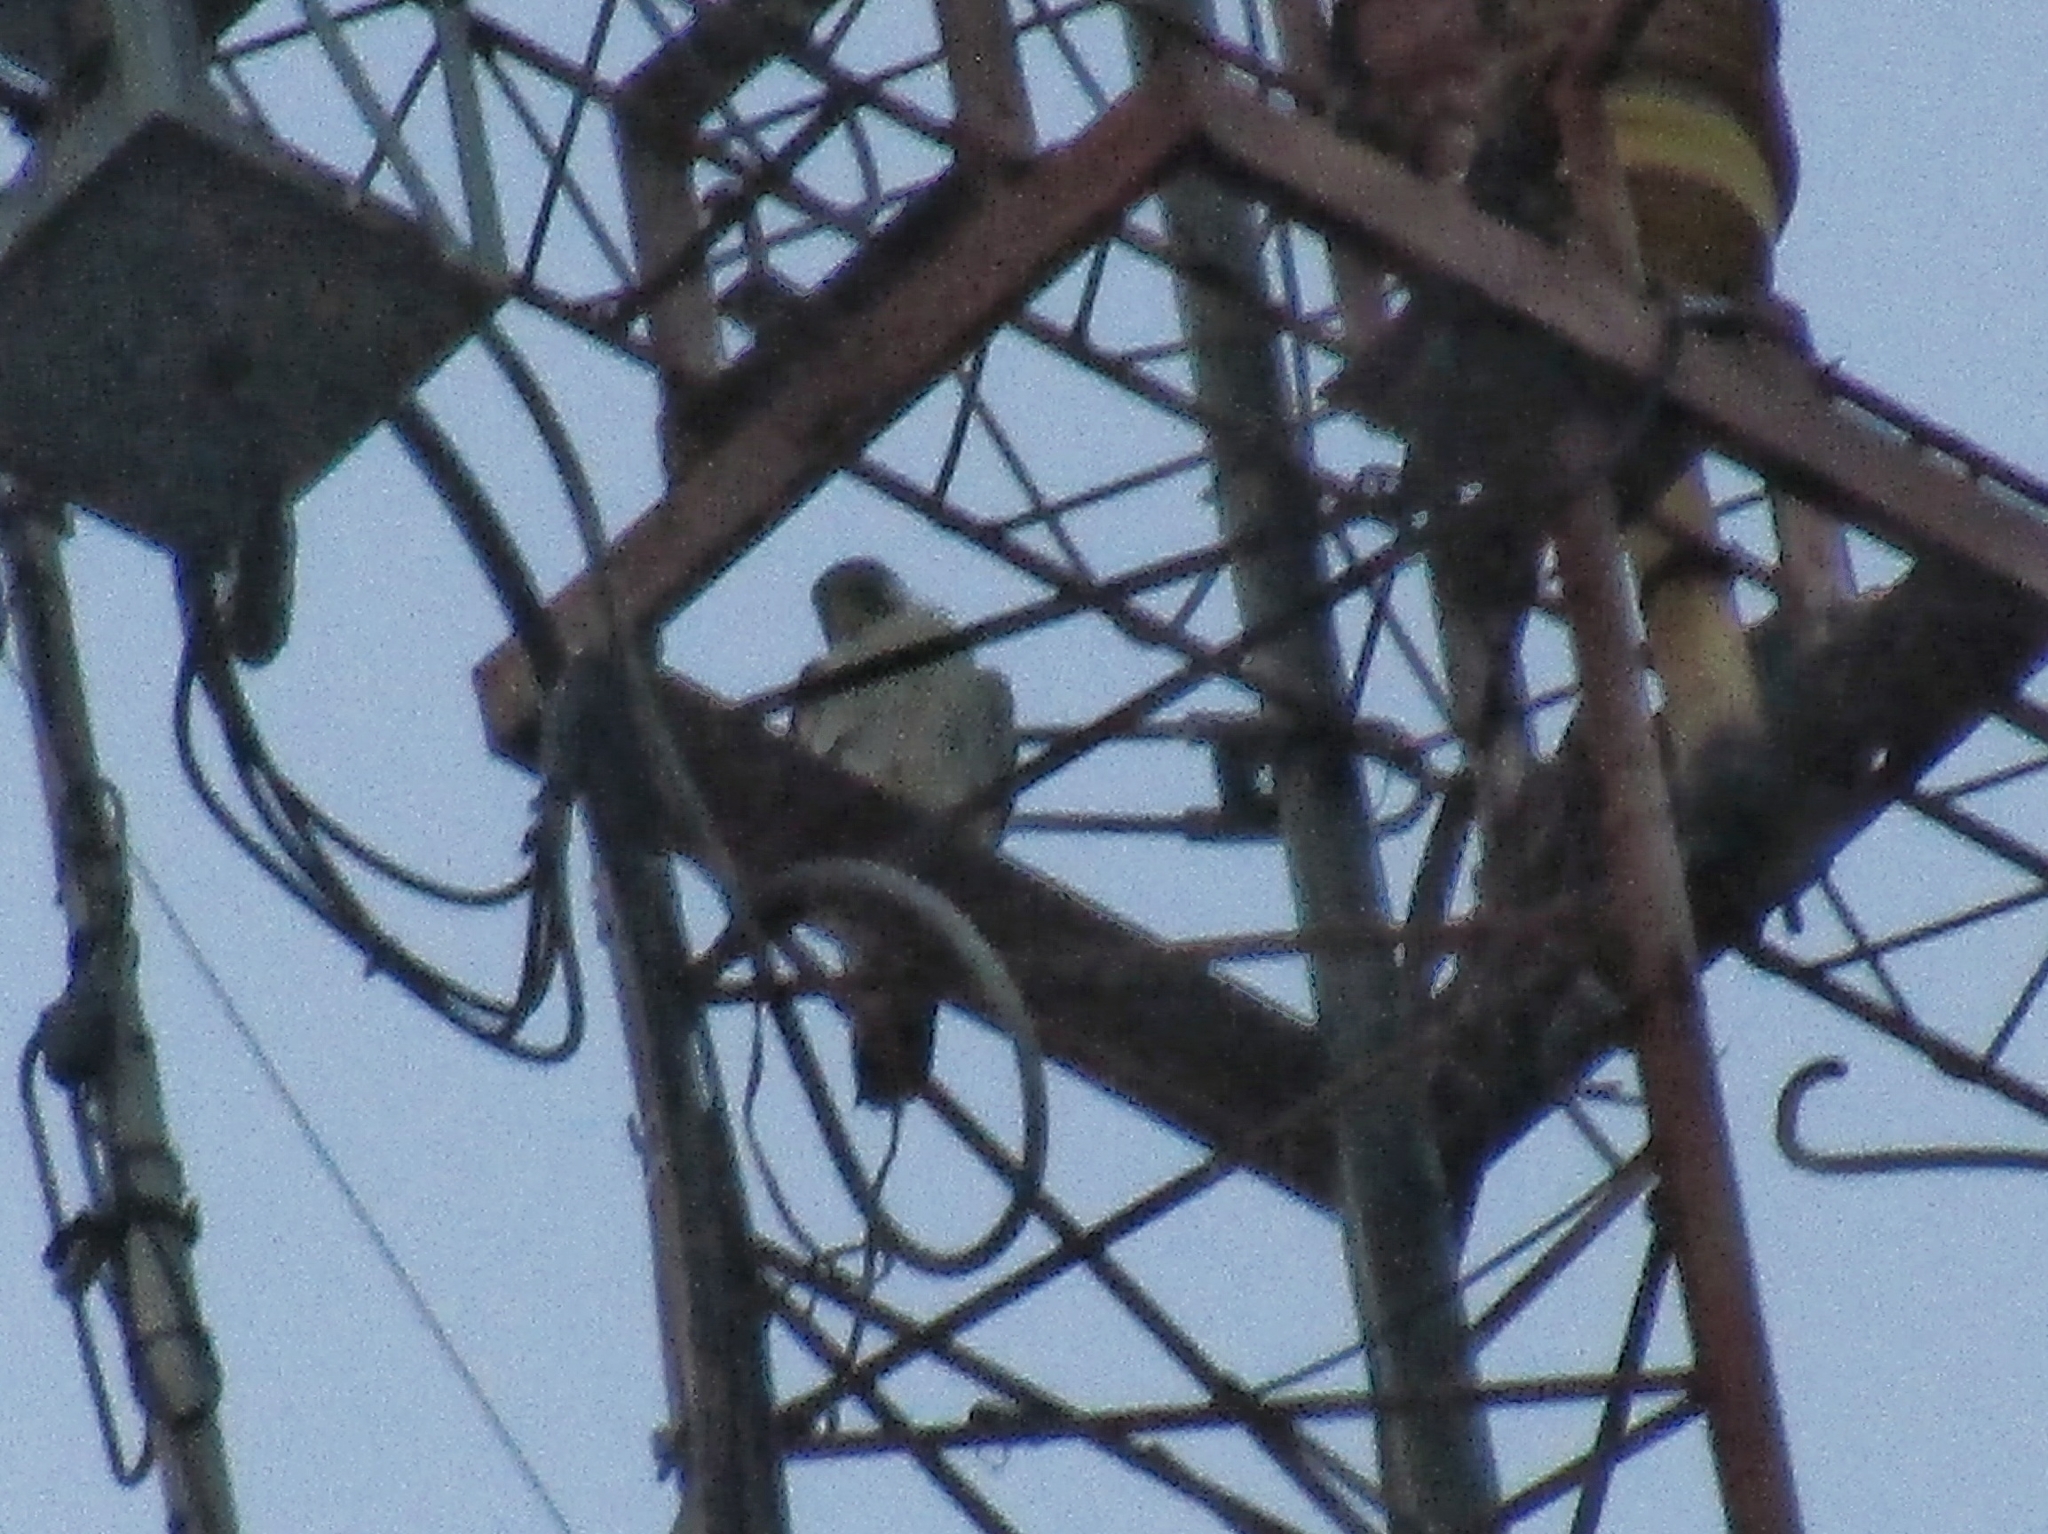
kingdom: Animalia
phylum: Chordata
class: Aves
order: Falconiformes
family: Falconidae
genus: Falco
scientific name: Falco peregrinus
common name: Peregrine falcon
